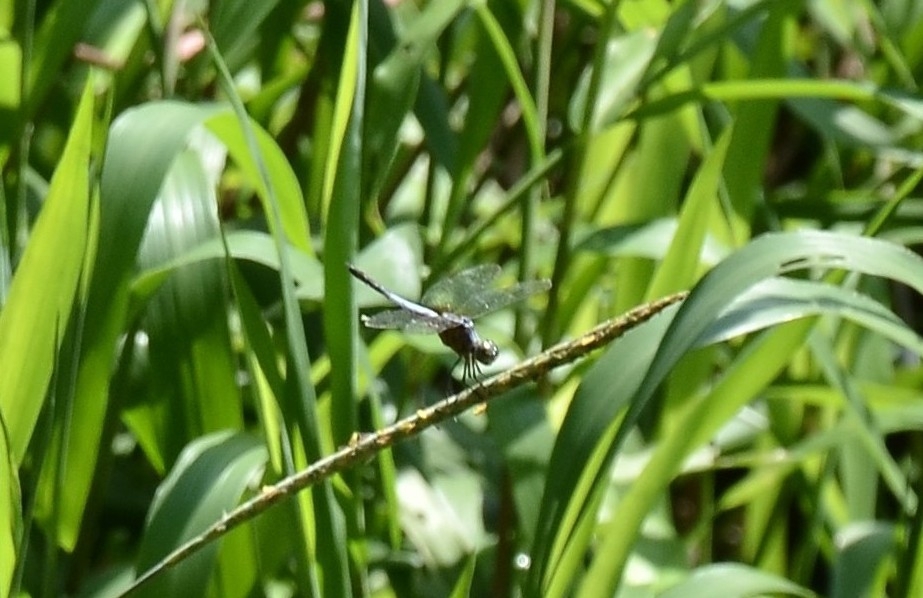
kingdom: Animalia
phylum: Arthropoda
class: Insecta
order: Odonata
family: Libellulidae
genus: Brachydiplax
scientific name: Brachydiplax chalybea
